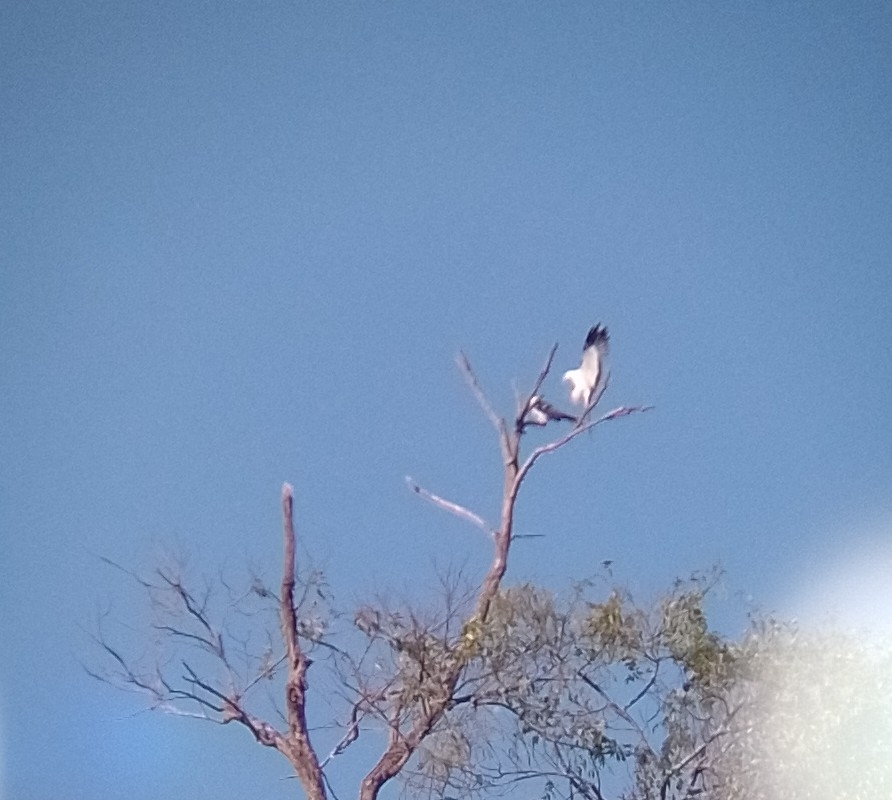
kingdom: Animalia
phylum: Chordata
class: Aves
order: Accipitriformes
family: Accipitridae
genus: Elanoides
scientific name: Elanoides forficatus
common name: Swallow-tailed kite
